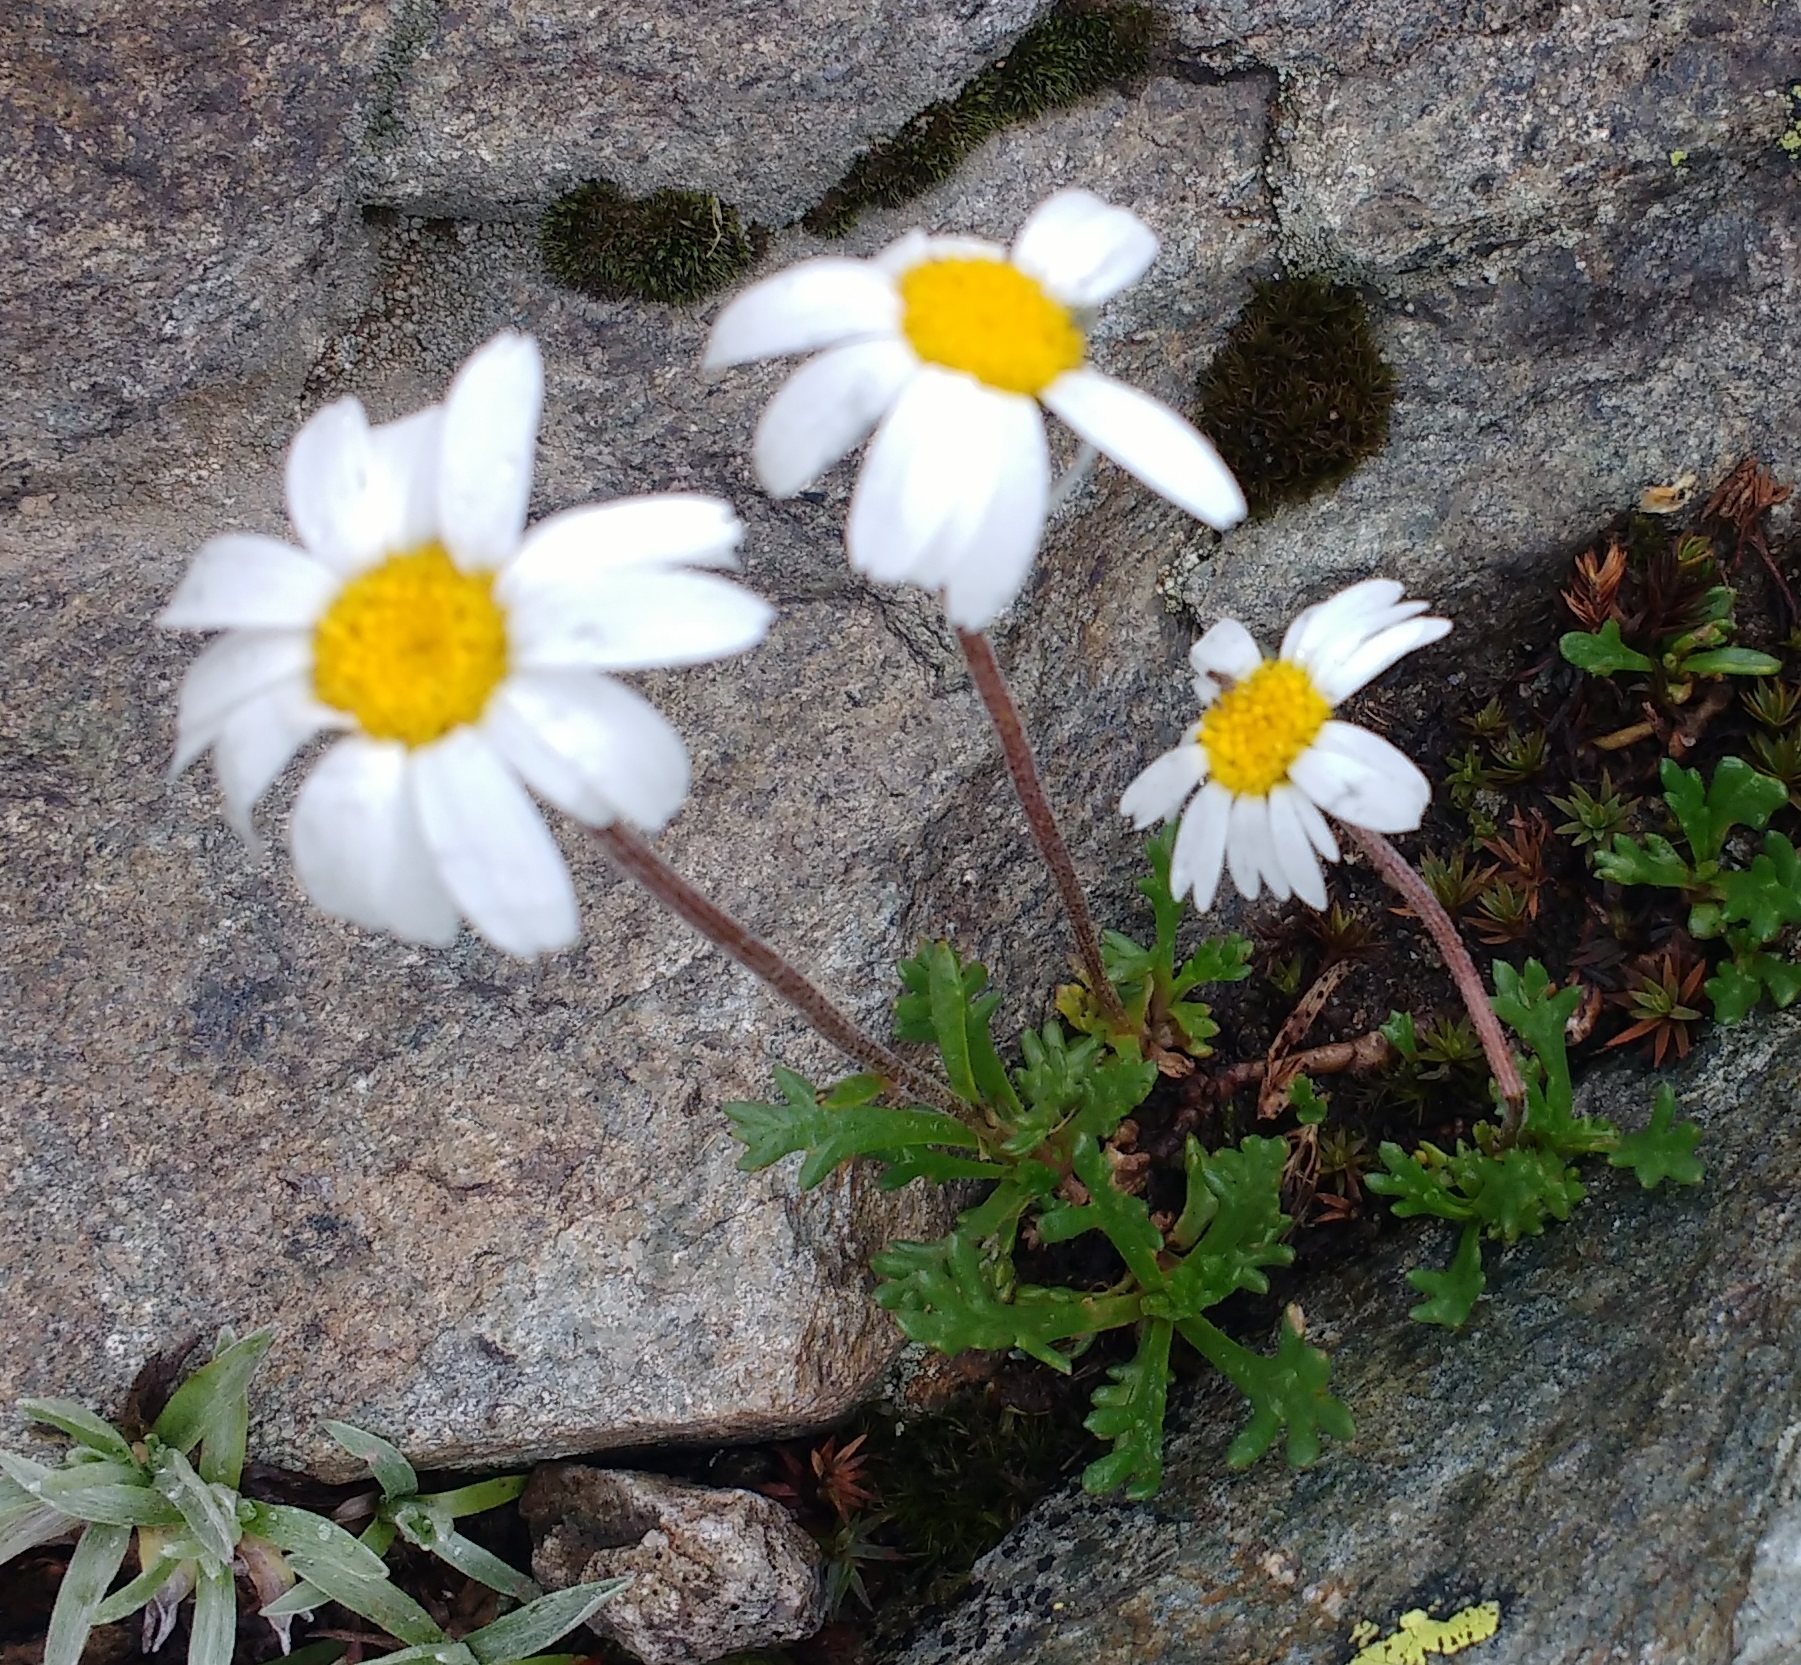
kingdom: Plantae
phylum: Tracheophyta
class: Magnoliopsida
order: Asterales
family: Asteraceae
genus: Leucanthemopsis
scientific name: Leucanthemopsis alpina
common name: Alpine moon daisy
